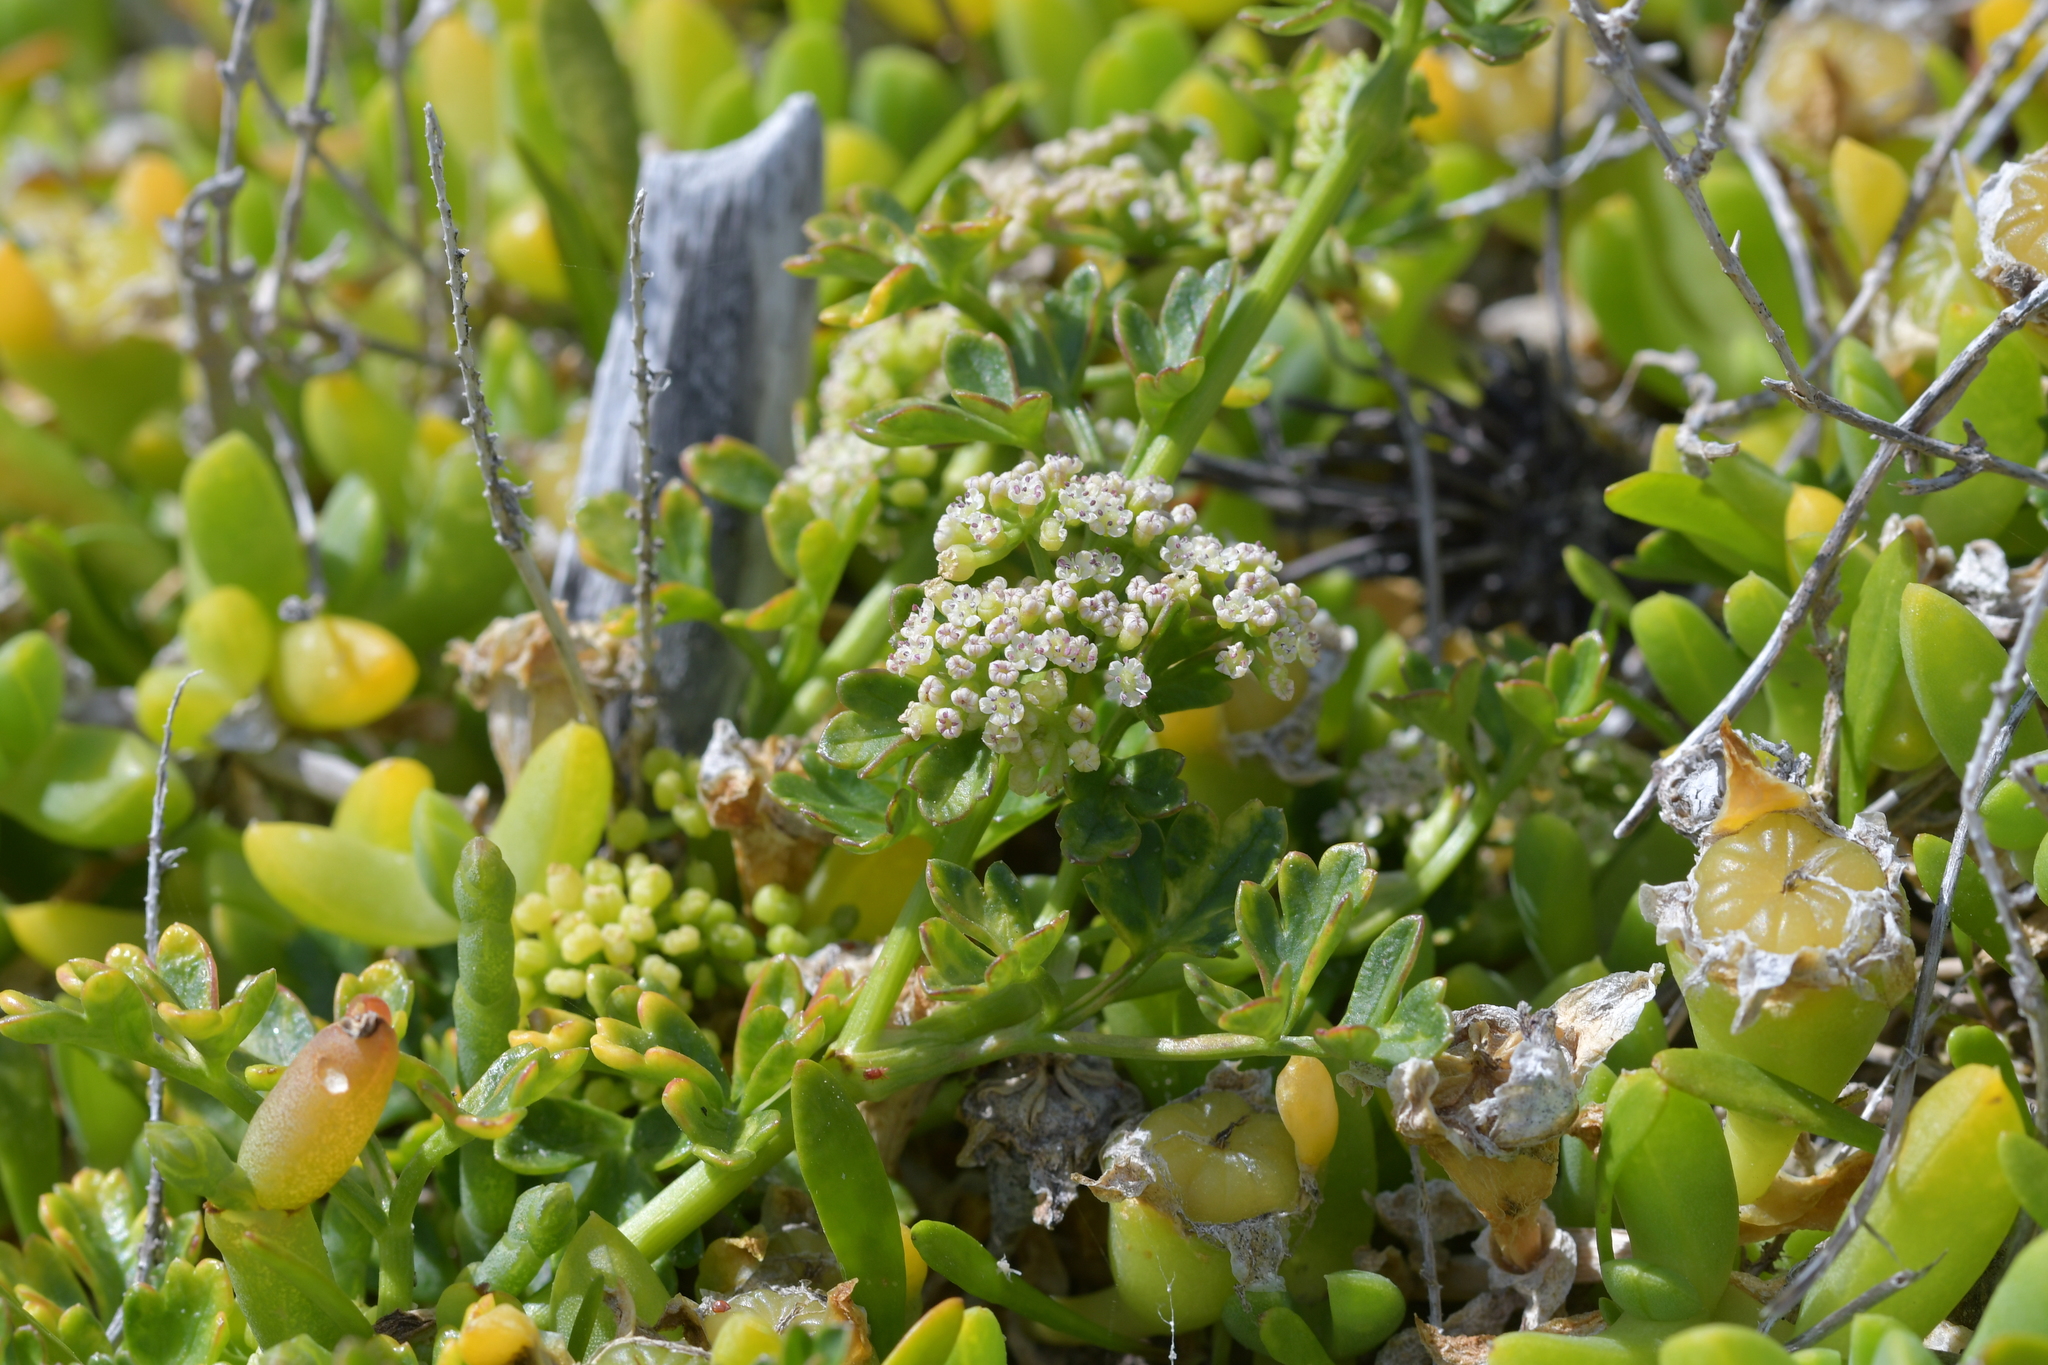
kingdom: Plantae
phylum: Tracheophyta
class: Magnoliopsida
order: Apiales
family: Apiaceae
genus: Apium
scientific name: Apium prostratum
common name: Prostrate marshwort
